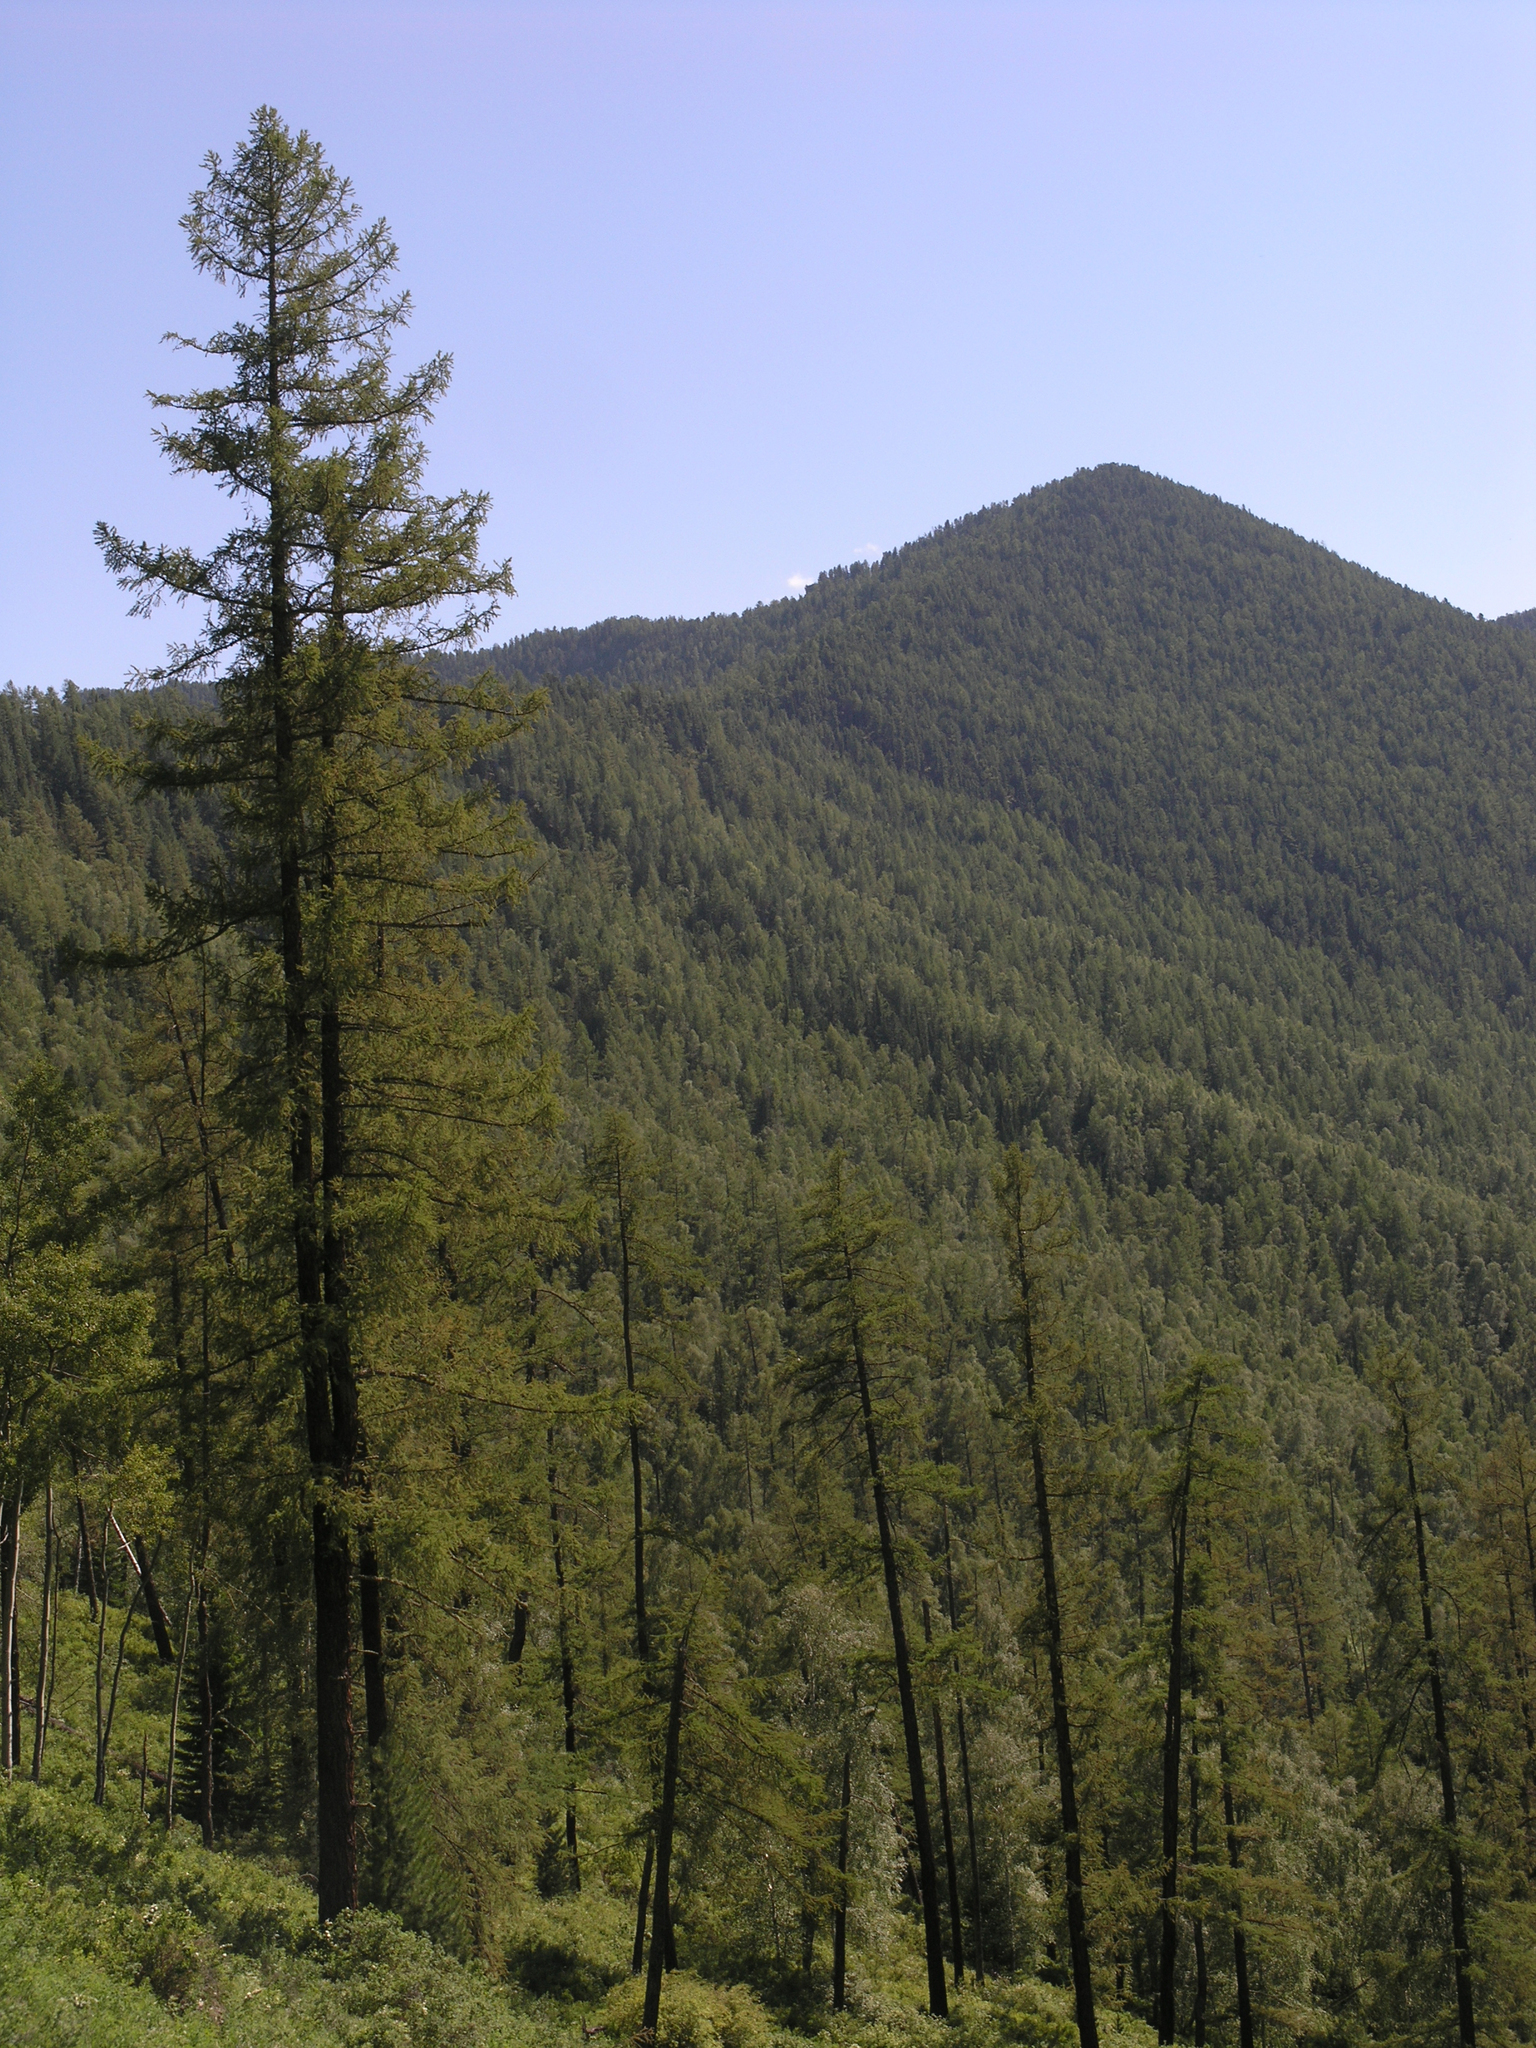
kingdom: Plantae
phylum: Tracheophyta
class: Pinopsida
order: Pinales
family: Pinaceae
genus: Larix
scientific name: Larix sibirica
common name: Siberian larch
